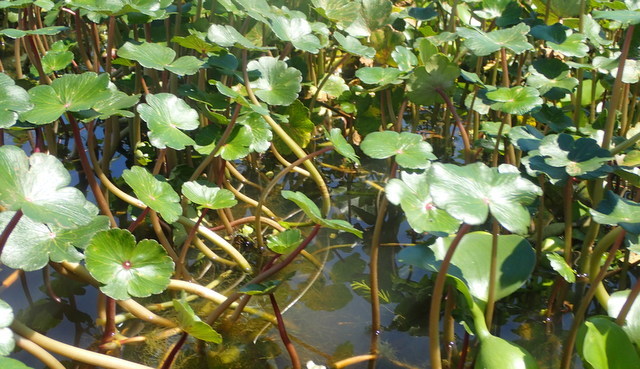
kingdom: Plantae
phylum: Tracheophyta
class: Magnoliopsida
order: Apiales
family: Araliaceae
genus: Hydrocotyle
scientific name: Hydrocotyle ranunculoides
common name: Floating pennywort
